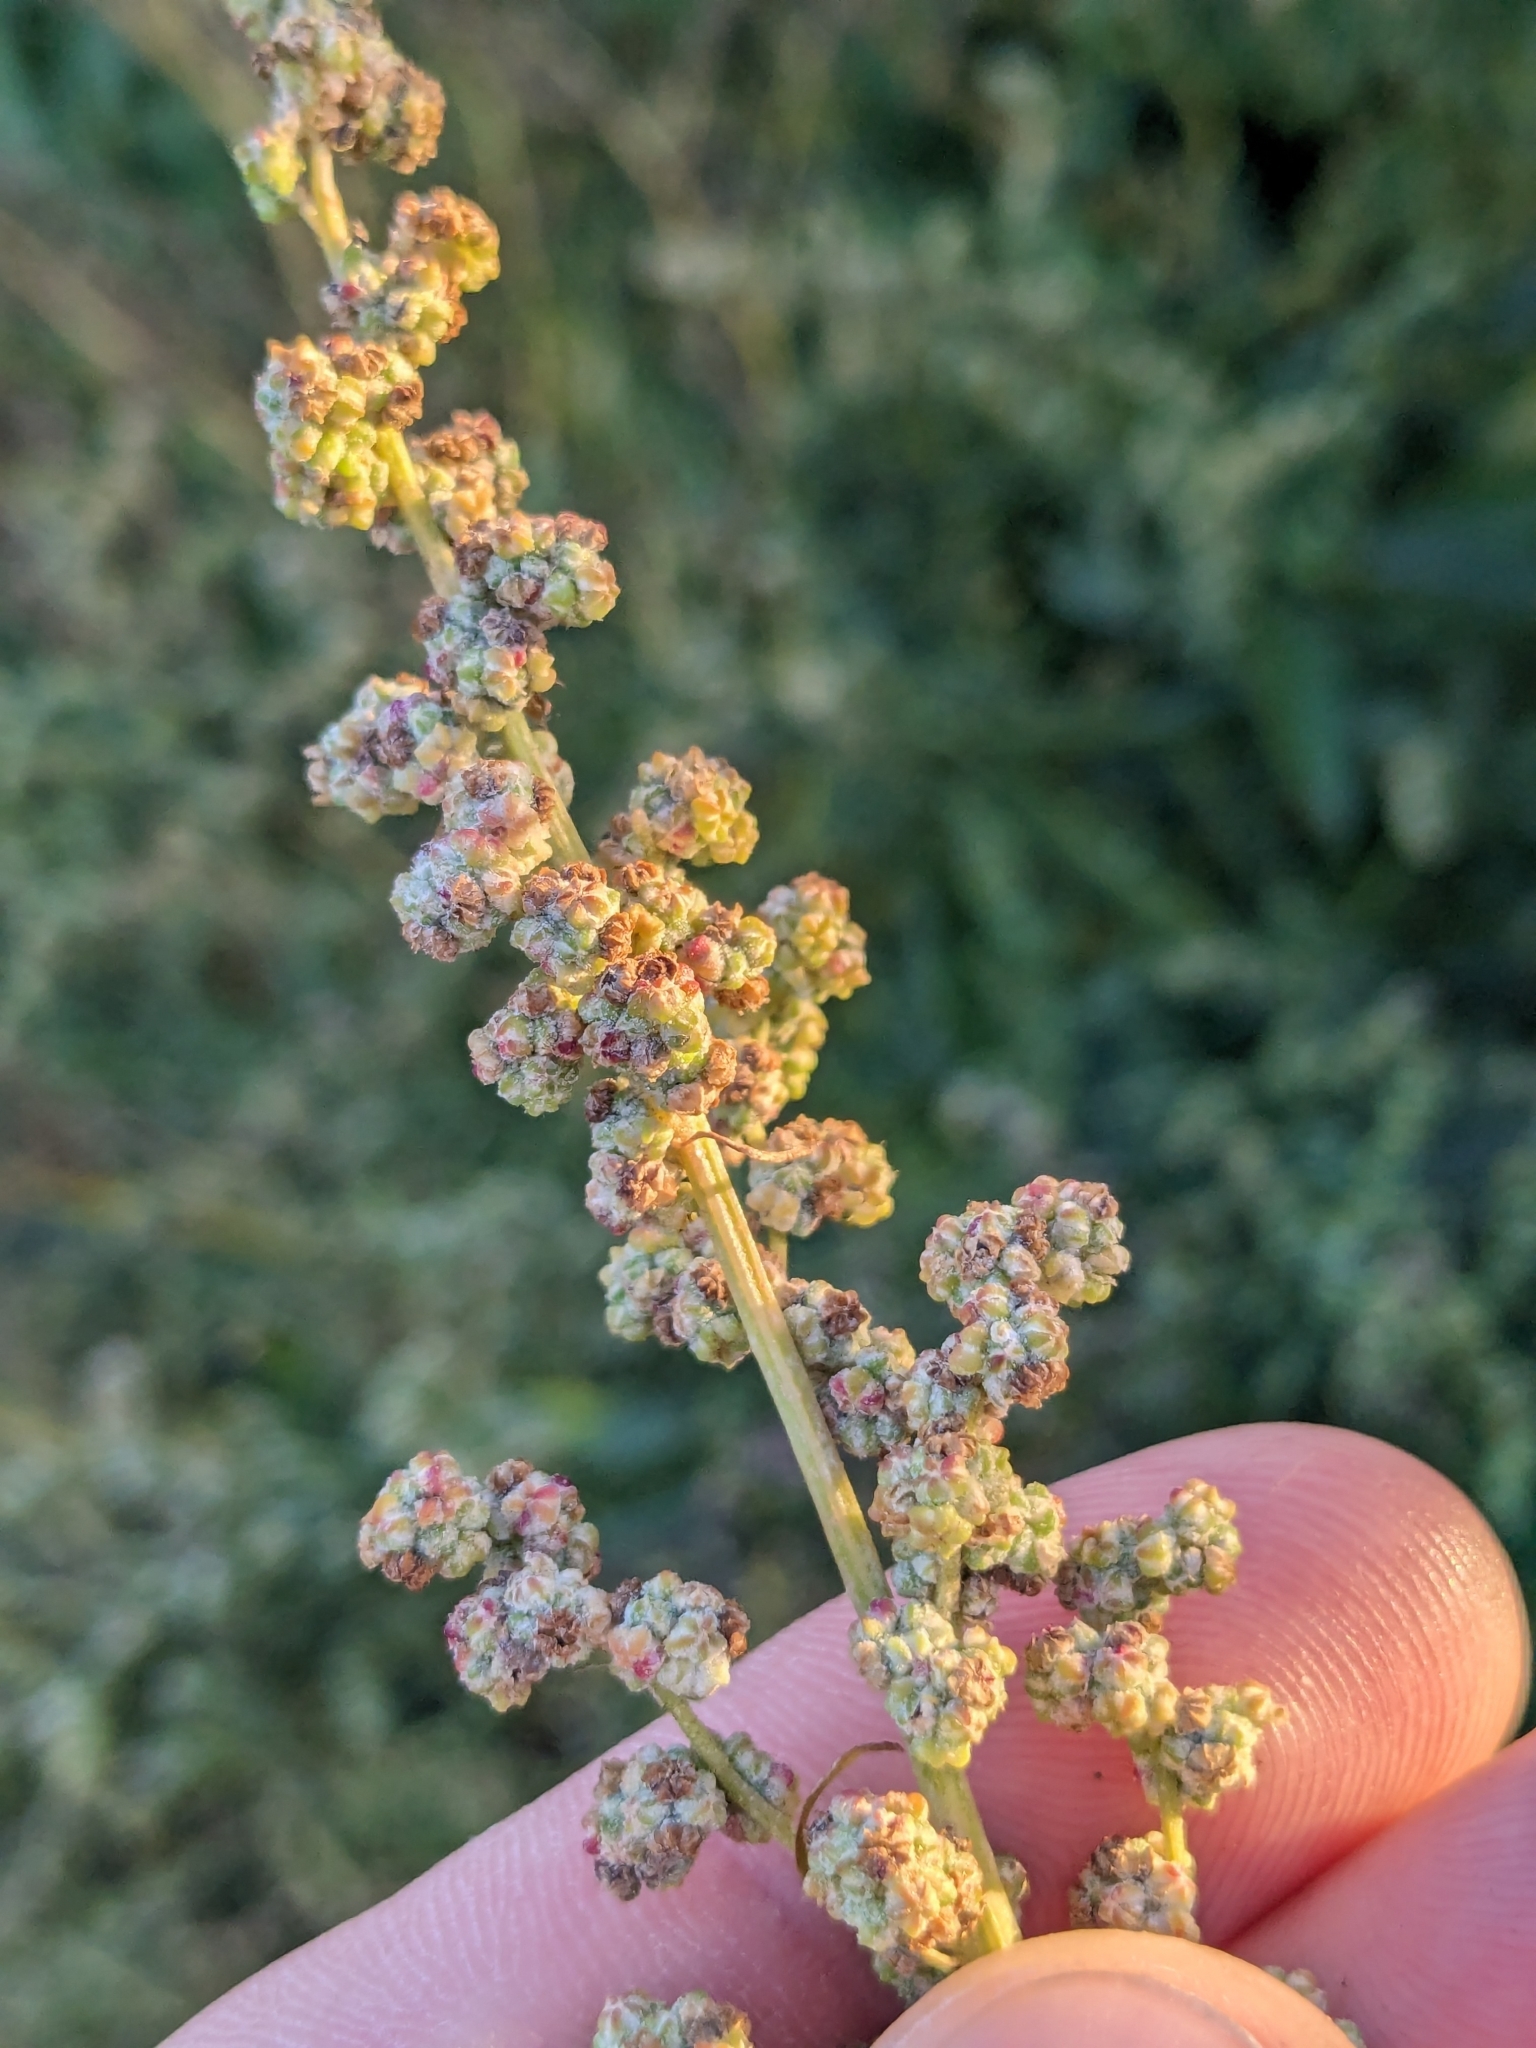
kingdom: Plantae
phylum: Tracheophyta
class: Magnoliopsida
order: Caryophyllales
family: Amaranthaceae
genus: Chenopodium
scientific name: Chenopodium album
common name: Fat-hen
